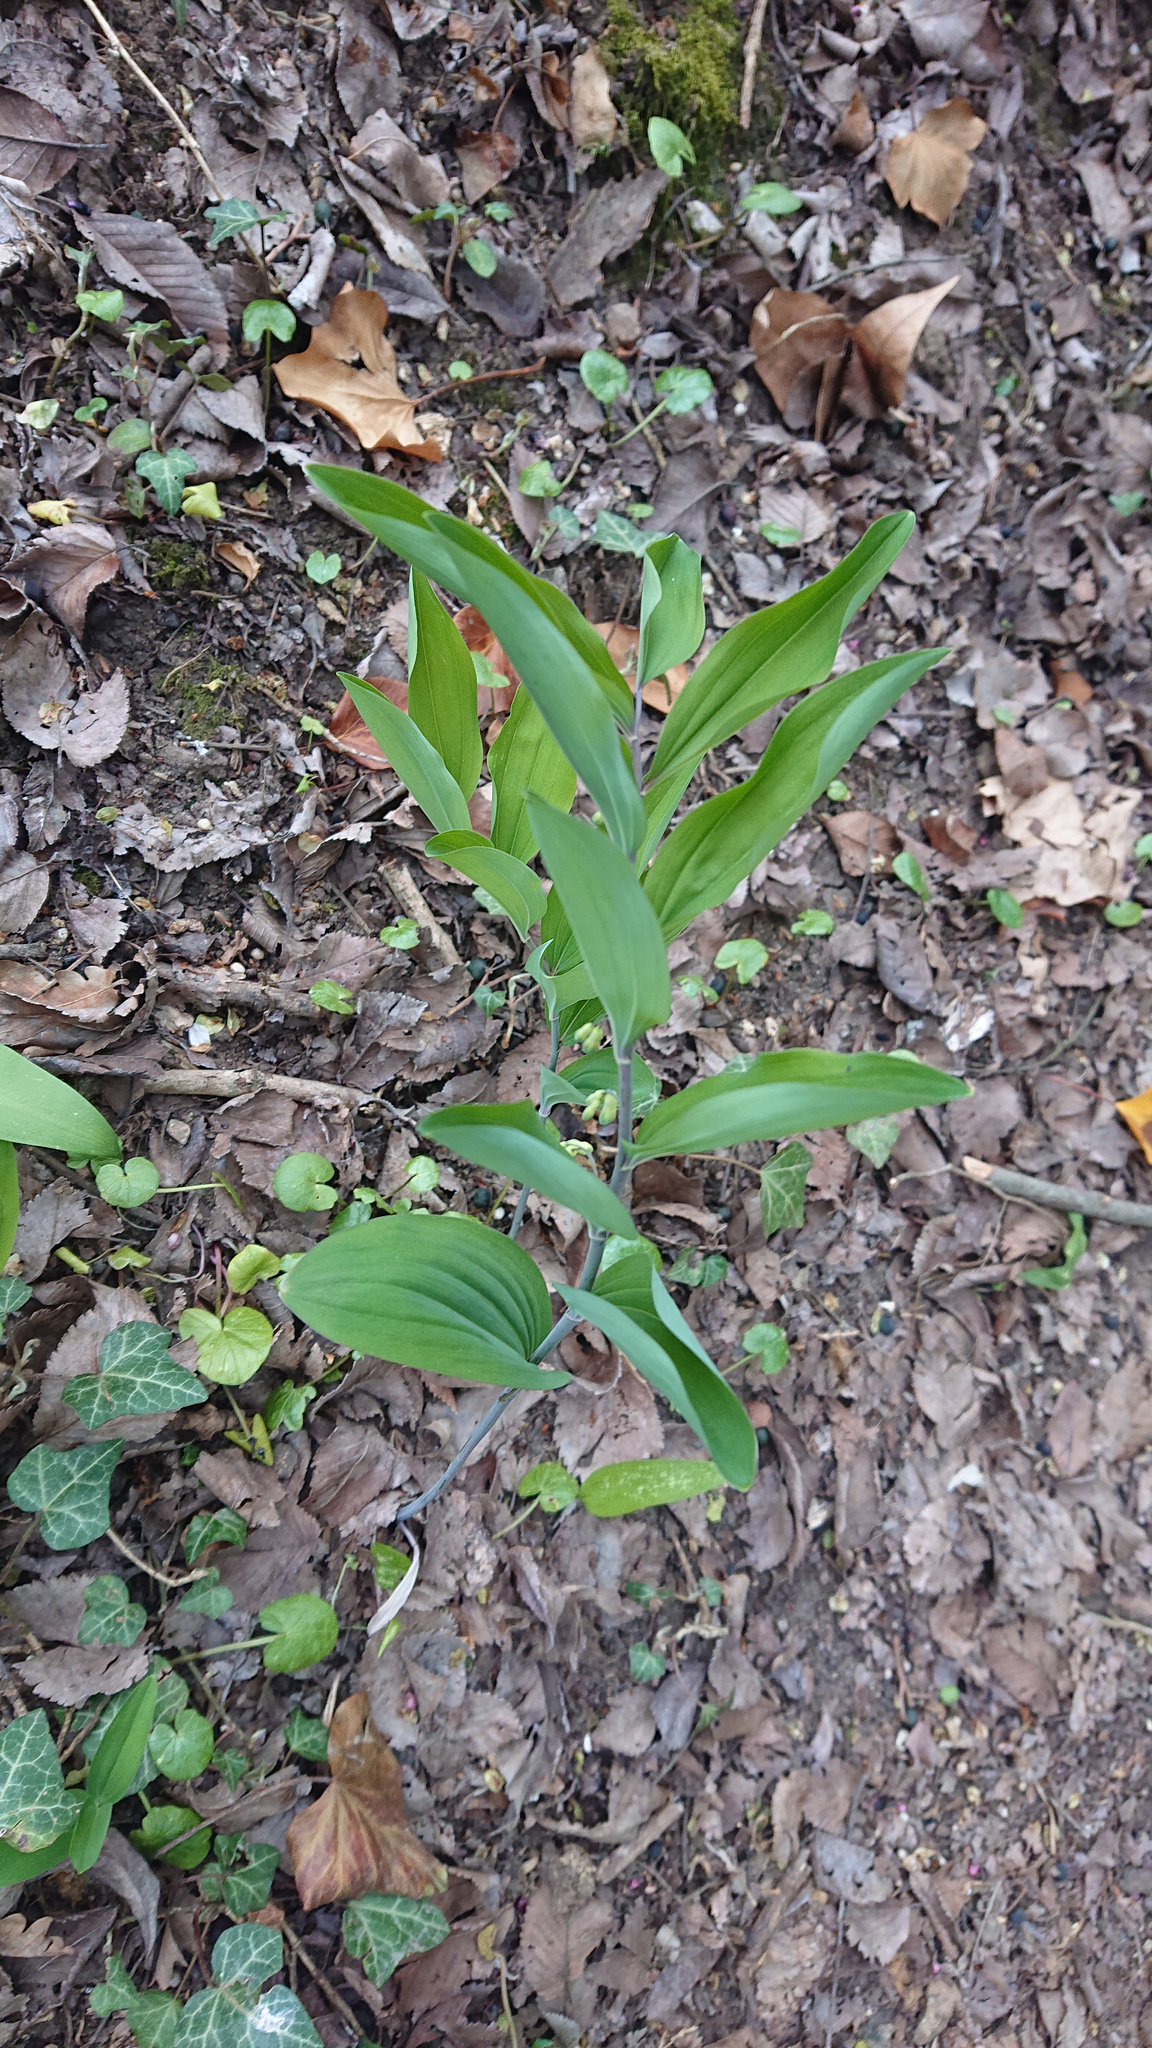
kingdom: Plantae
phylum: Tracheophyta
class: Liliopsida
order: Asparagales
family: Asparagaceae
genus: Polygonatum
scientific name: Polygonatum multiflorum
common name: Solomon's-seal
